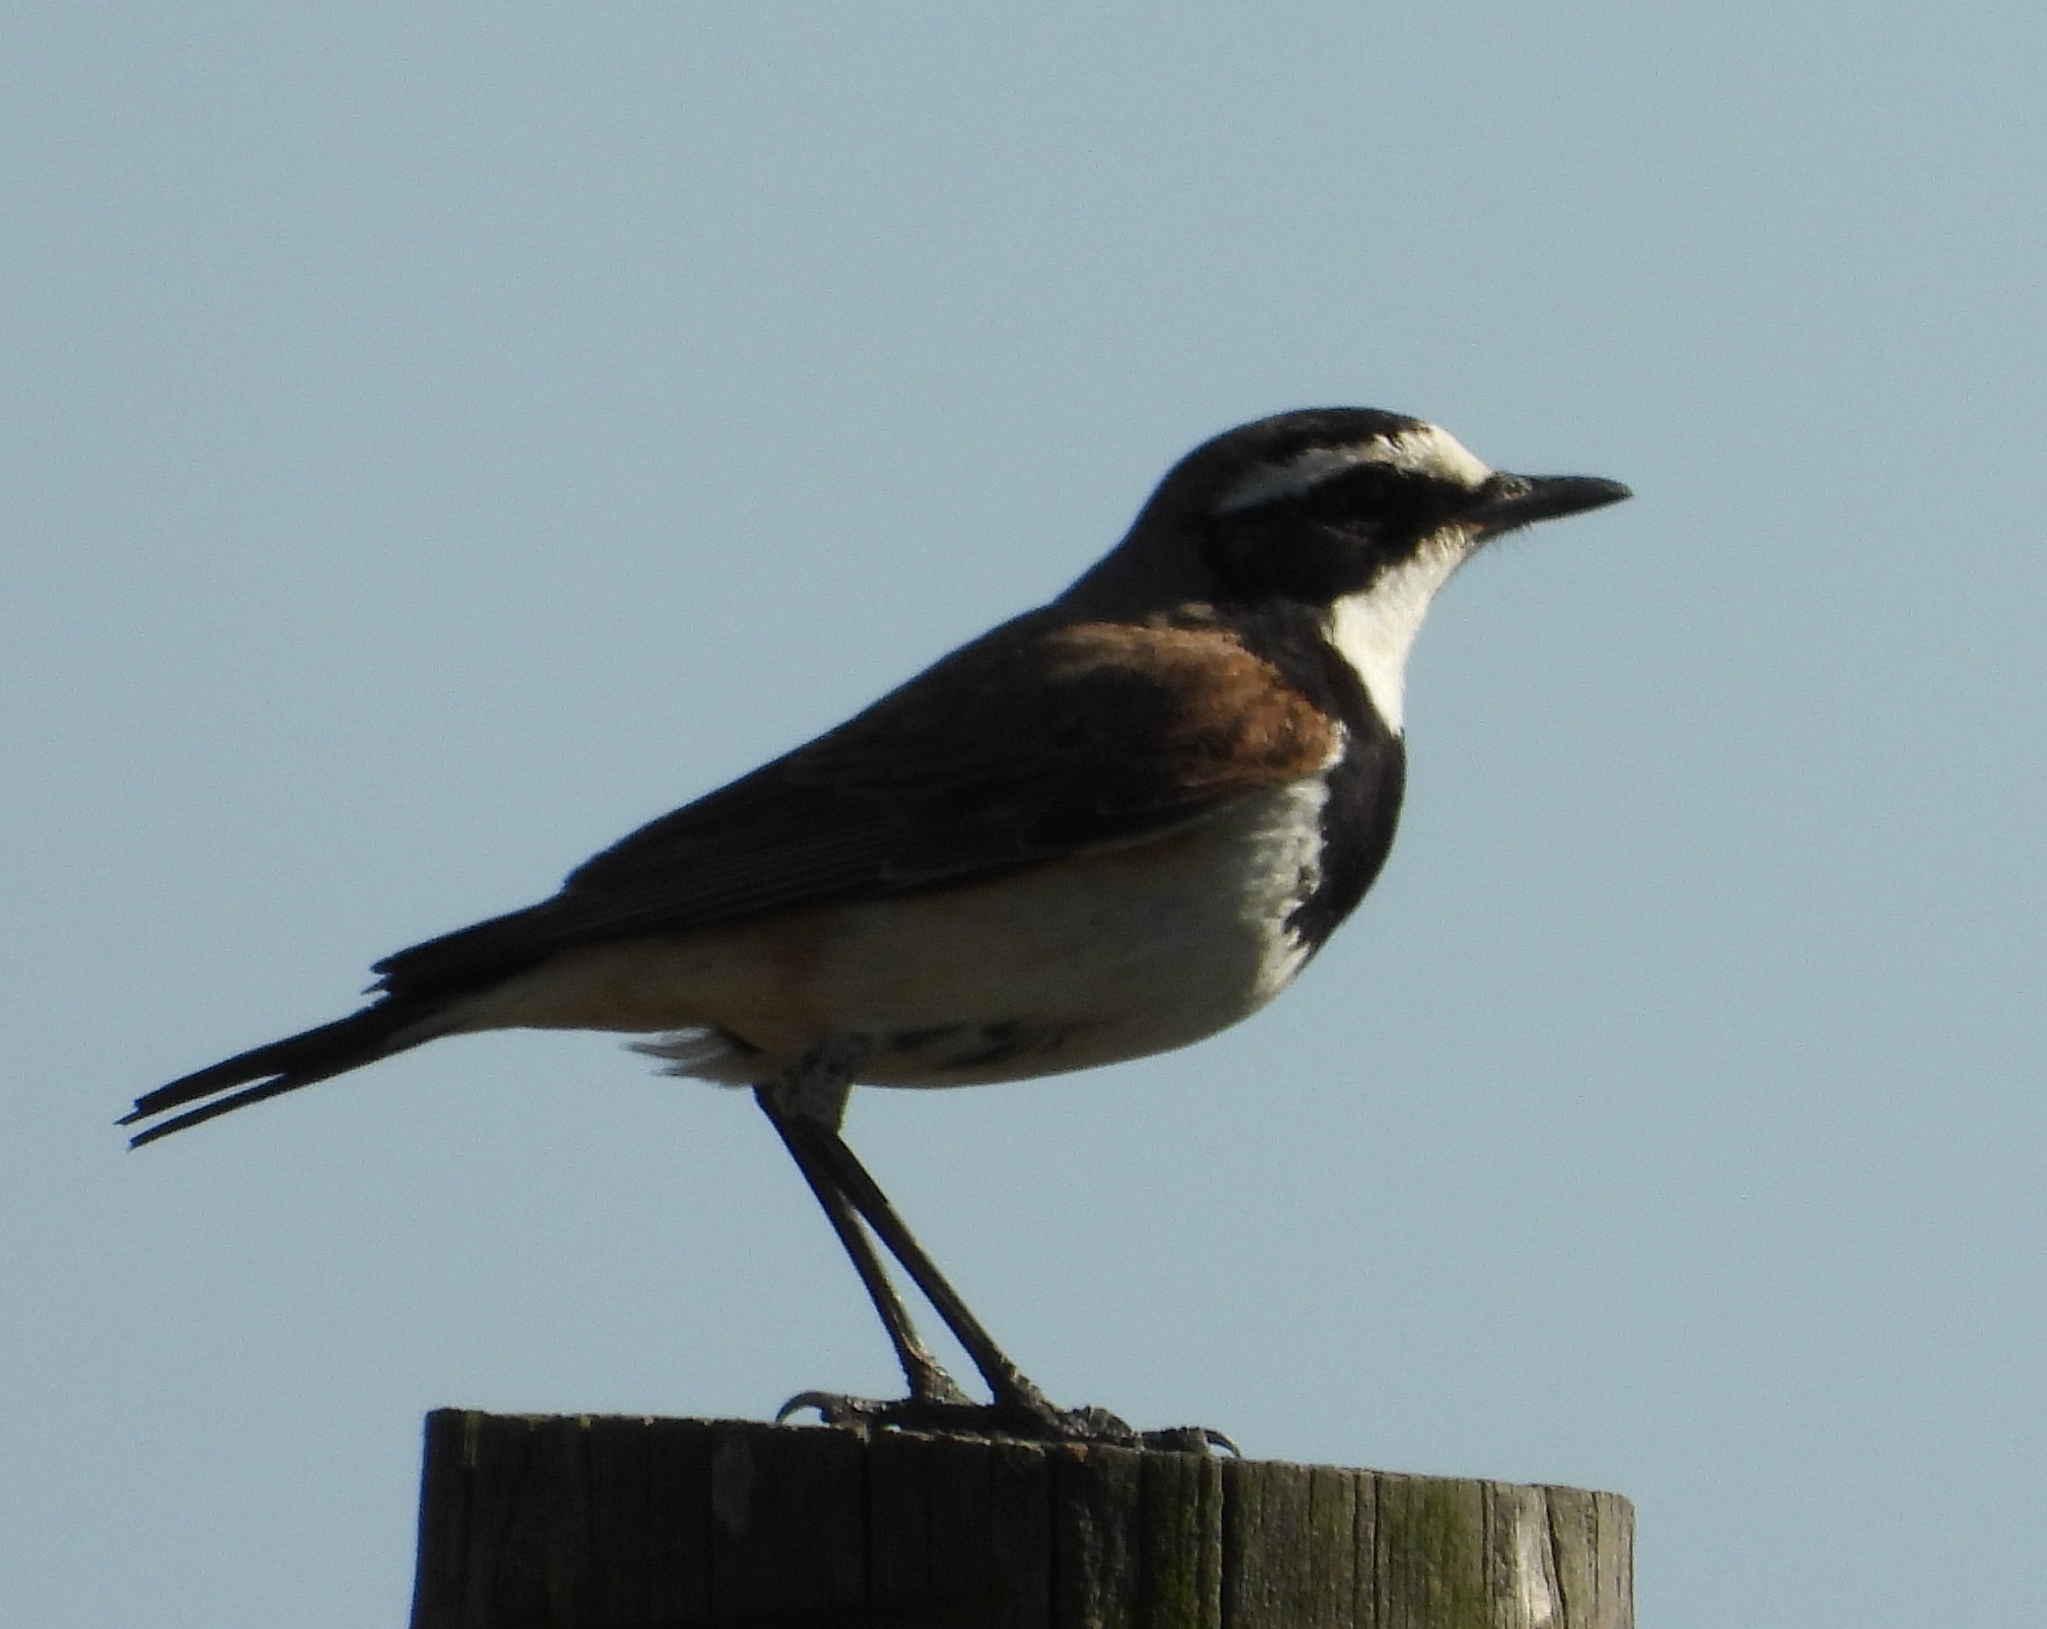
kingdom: Animalia
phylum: Chordata
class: Aves
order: Passeriformes
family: Muscicapidae
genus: Oenanthe
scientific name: Oenanthe pileata
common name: Capped wheatear
